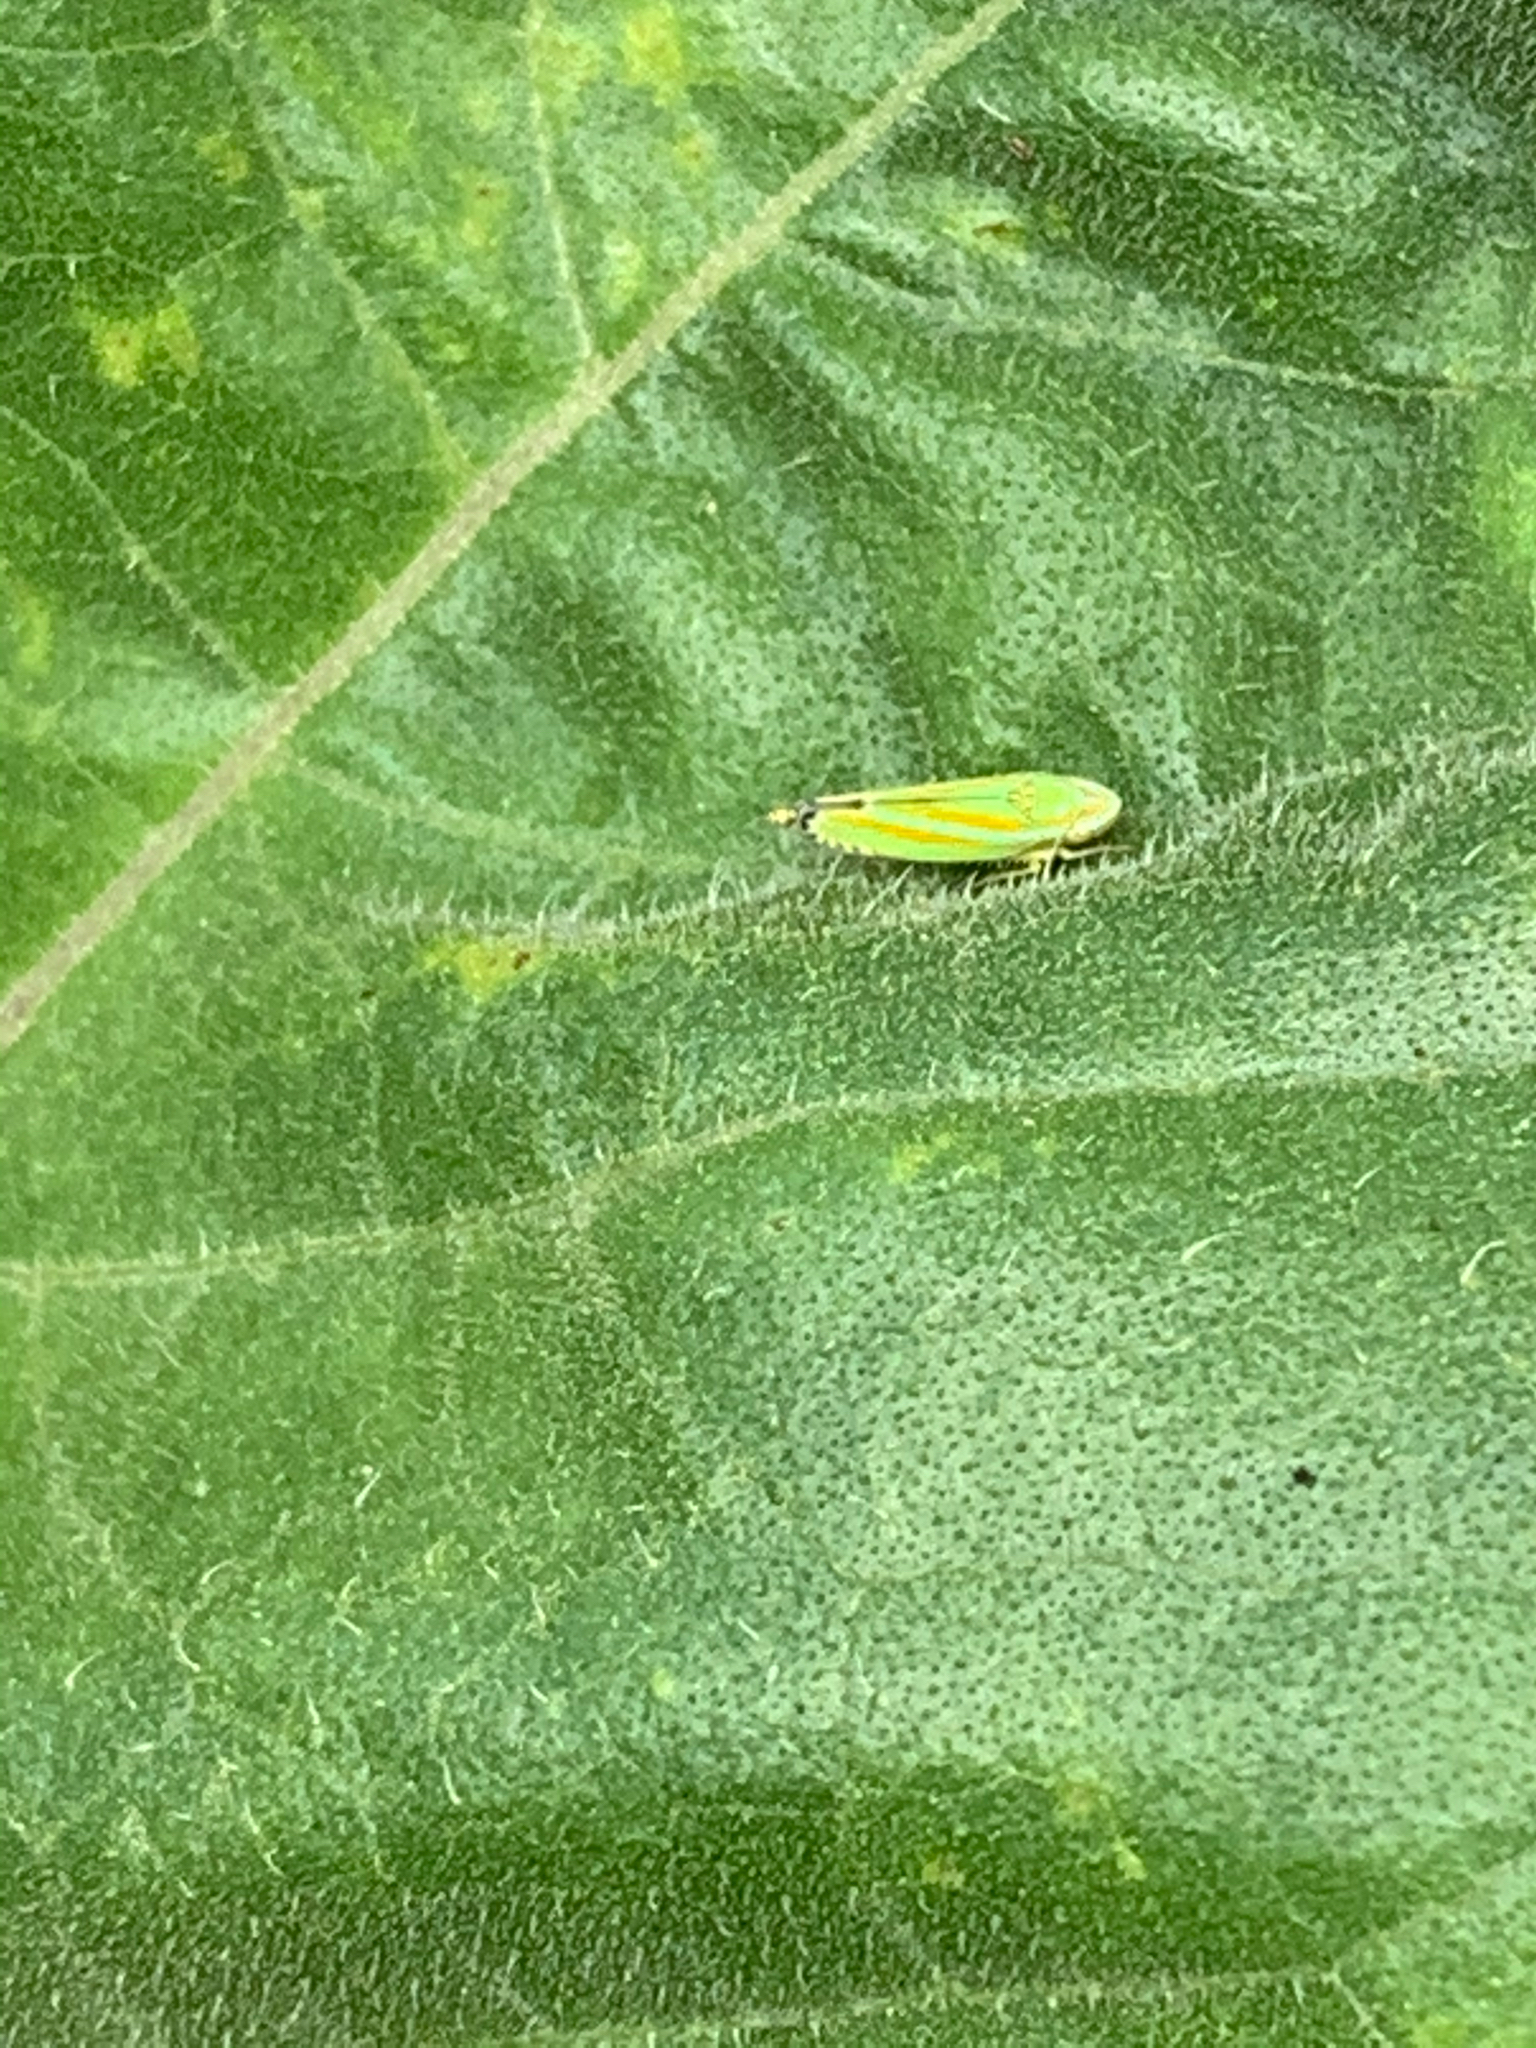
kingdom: Animalia
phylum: Arthropoda
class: Insecta
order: Hemiptera
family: Cicadellidae
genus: Graphocephala
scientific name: Graphocephala versuta
